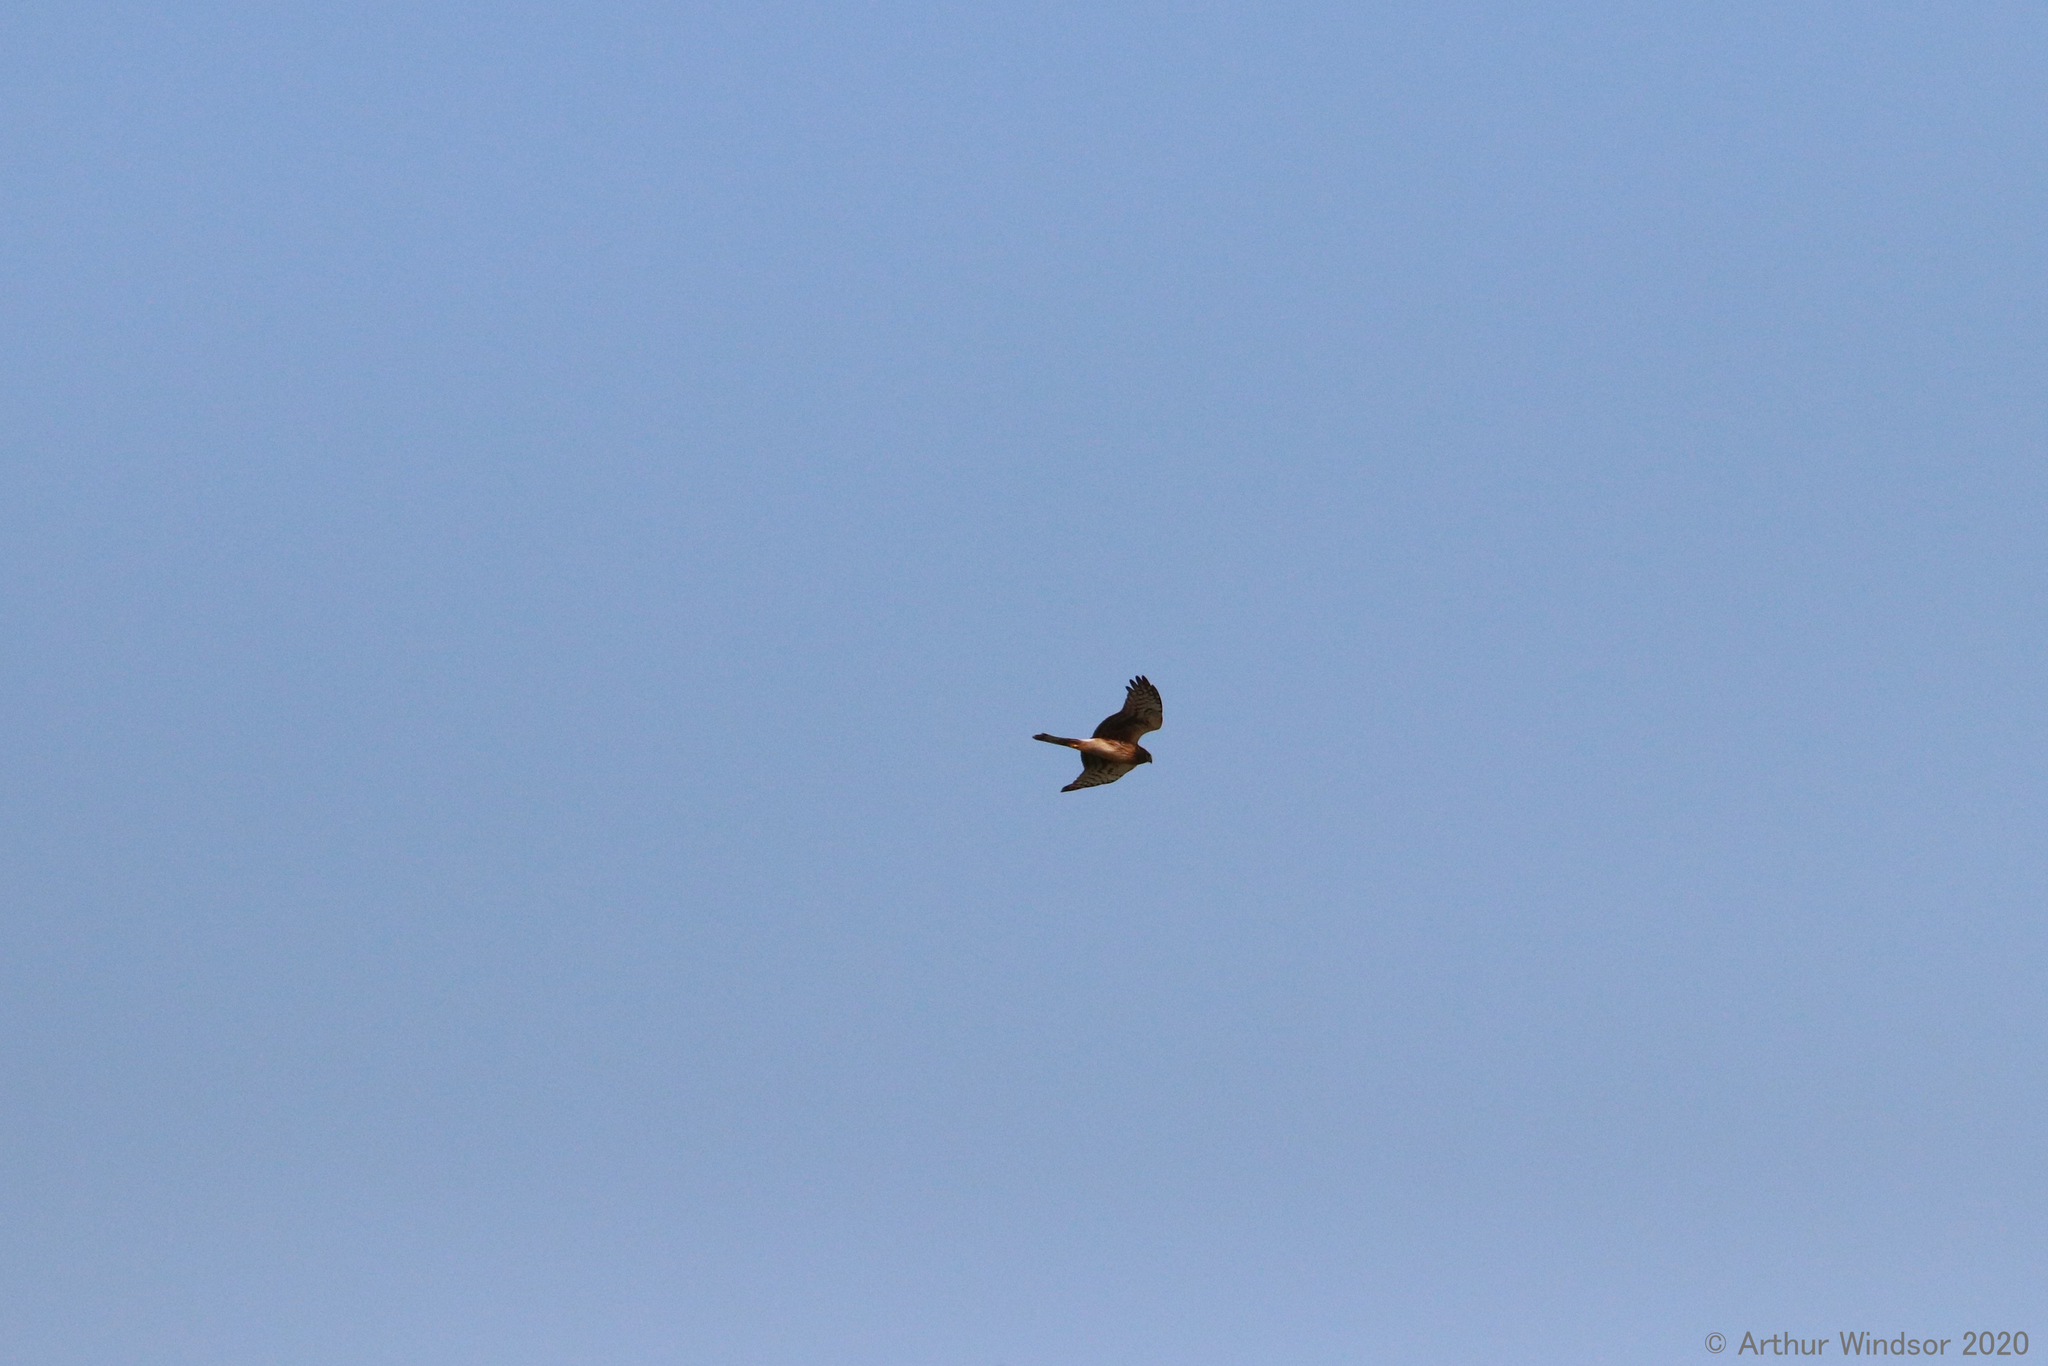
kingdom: Animalia
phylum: Chordata
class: Aves
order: Accipitriformes
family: Accipitridae
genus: Circus
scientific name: Circus cyaneus
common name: Hen harrier
